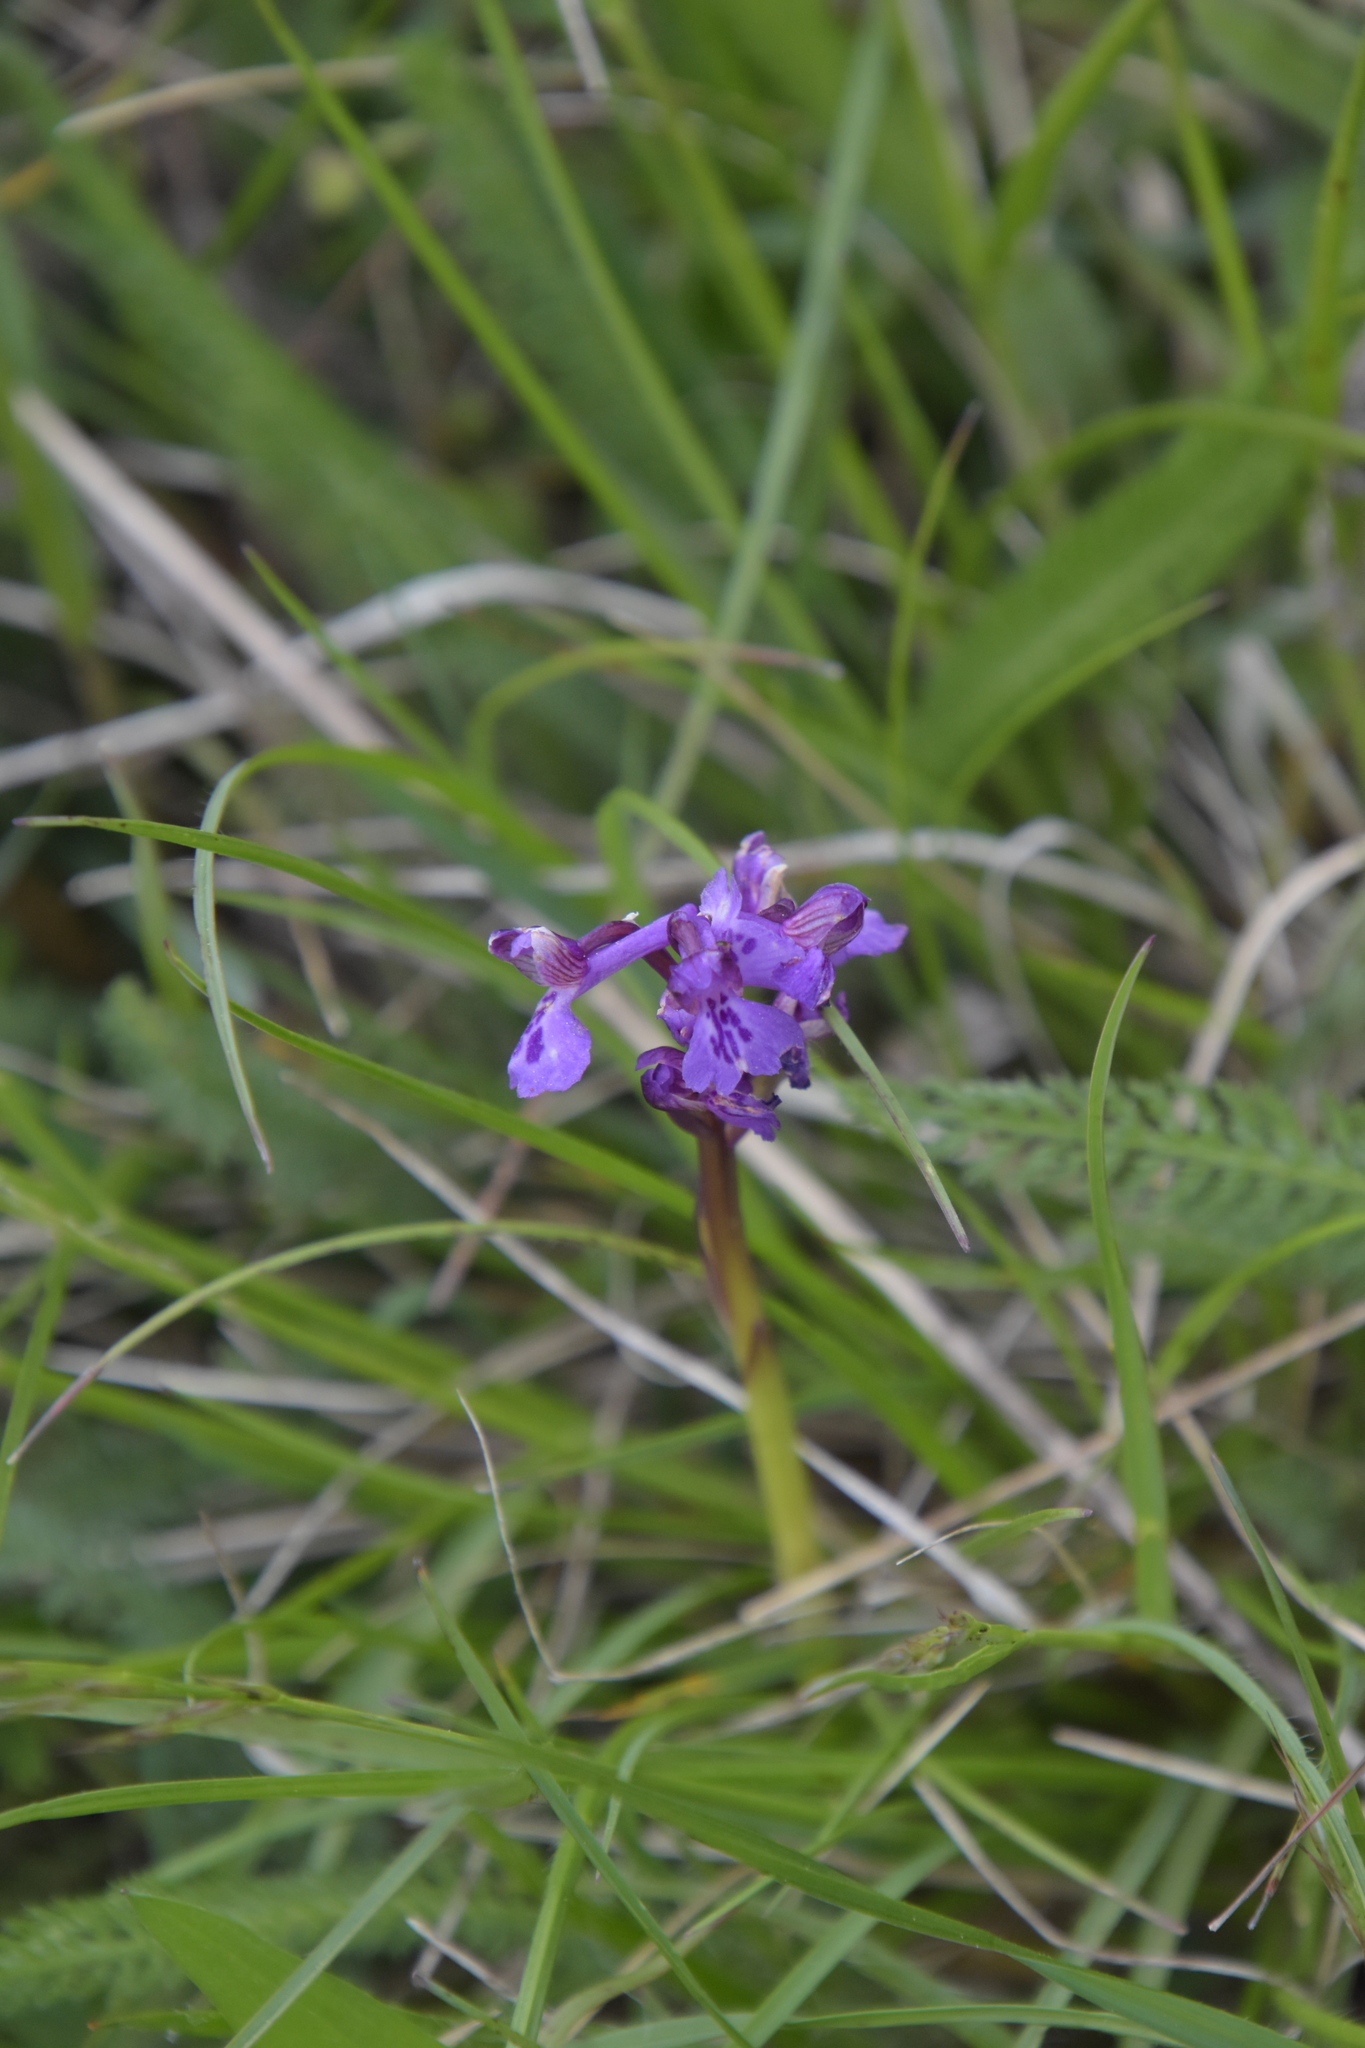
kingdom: Plantae
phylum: Tracheophyta
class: Liliopsida
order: Asparagales
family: Orchidaceae
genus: Anacamptis
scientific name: Anacamptis morio
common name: Green-winged orchid
